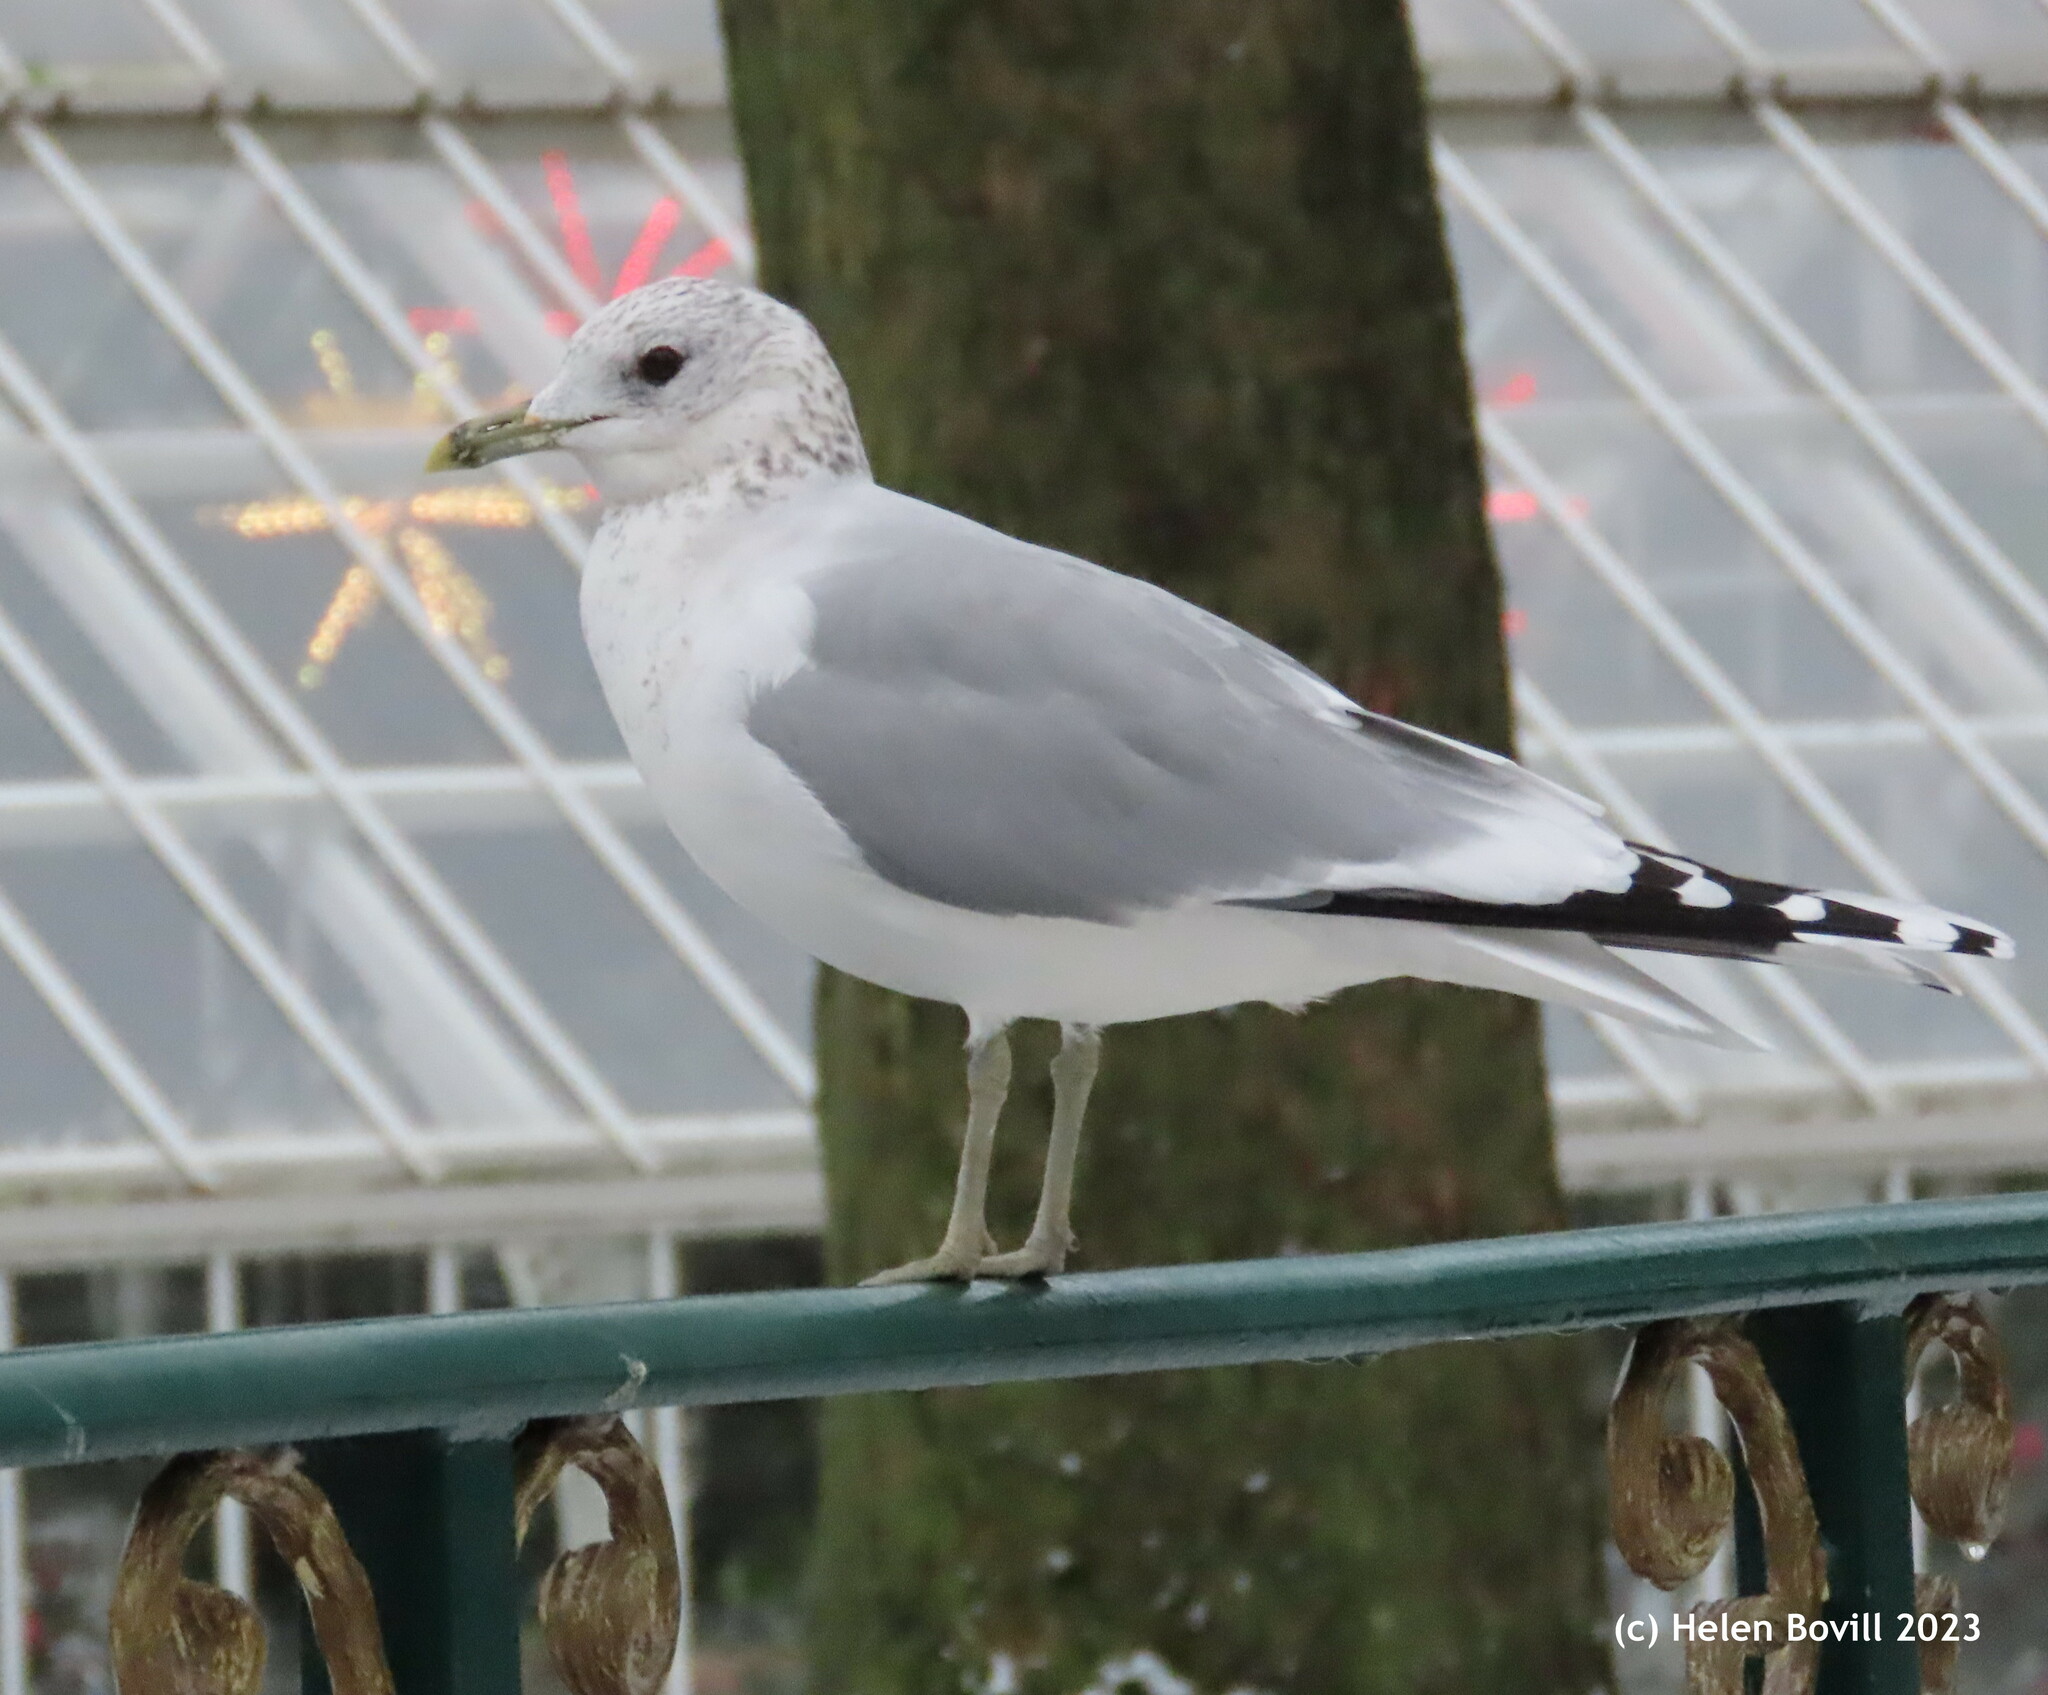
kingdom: Animalia
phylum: Chordata
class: Aves
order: Charadriiformes
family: Laridae
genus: Larus
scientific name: Larus canus
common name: Mew gull
